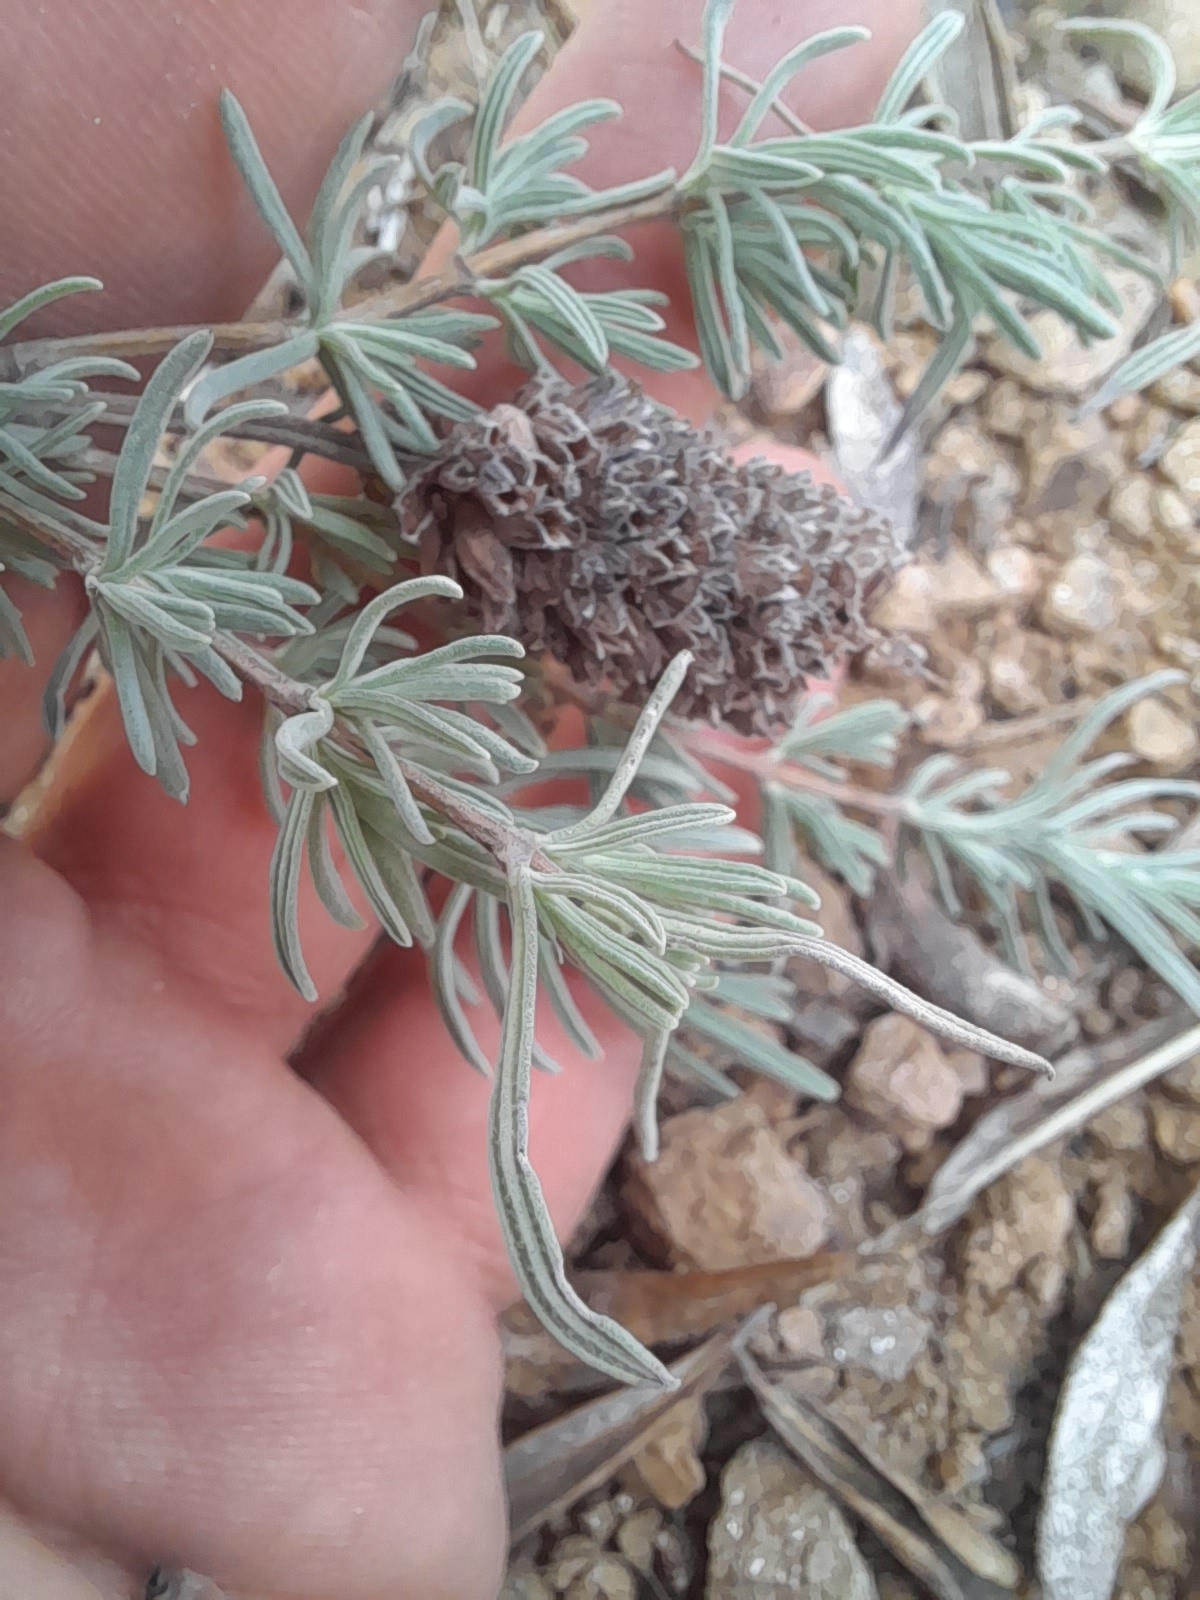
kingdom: Plantae
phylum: Tracheophyta
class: Magnoliopsida
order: Lamiales
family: Lamiaceae
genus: Lavandula
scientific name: Lavandula stoechas
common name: French lavender
